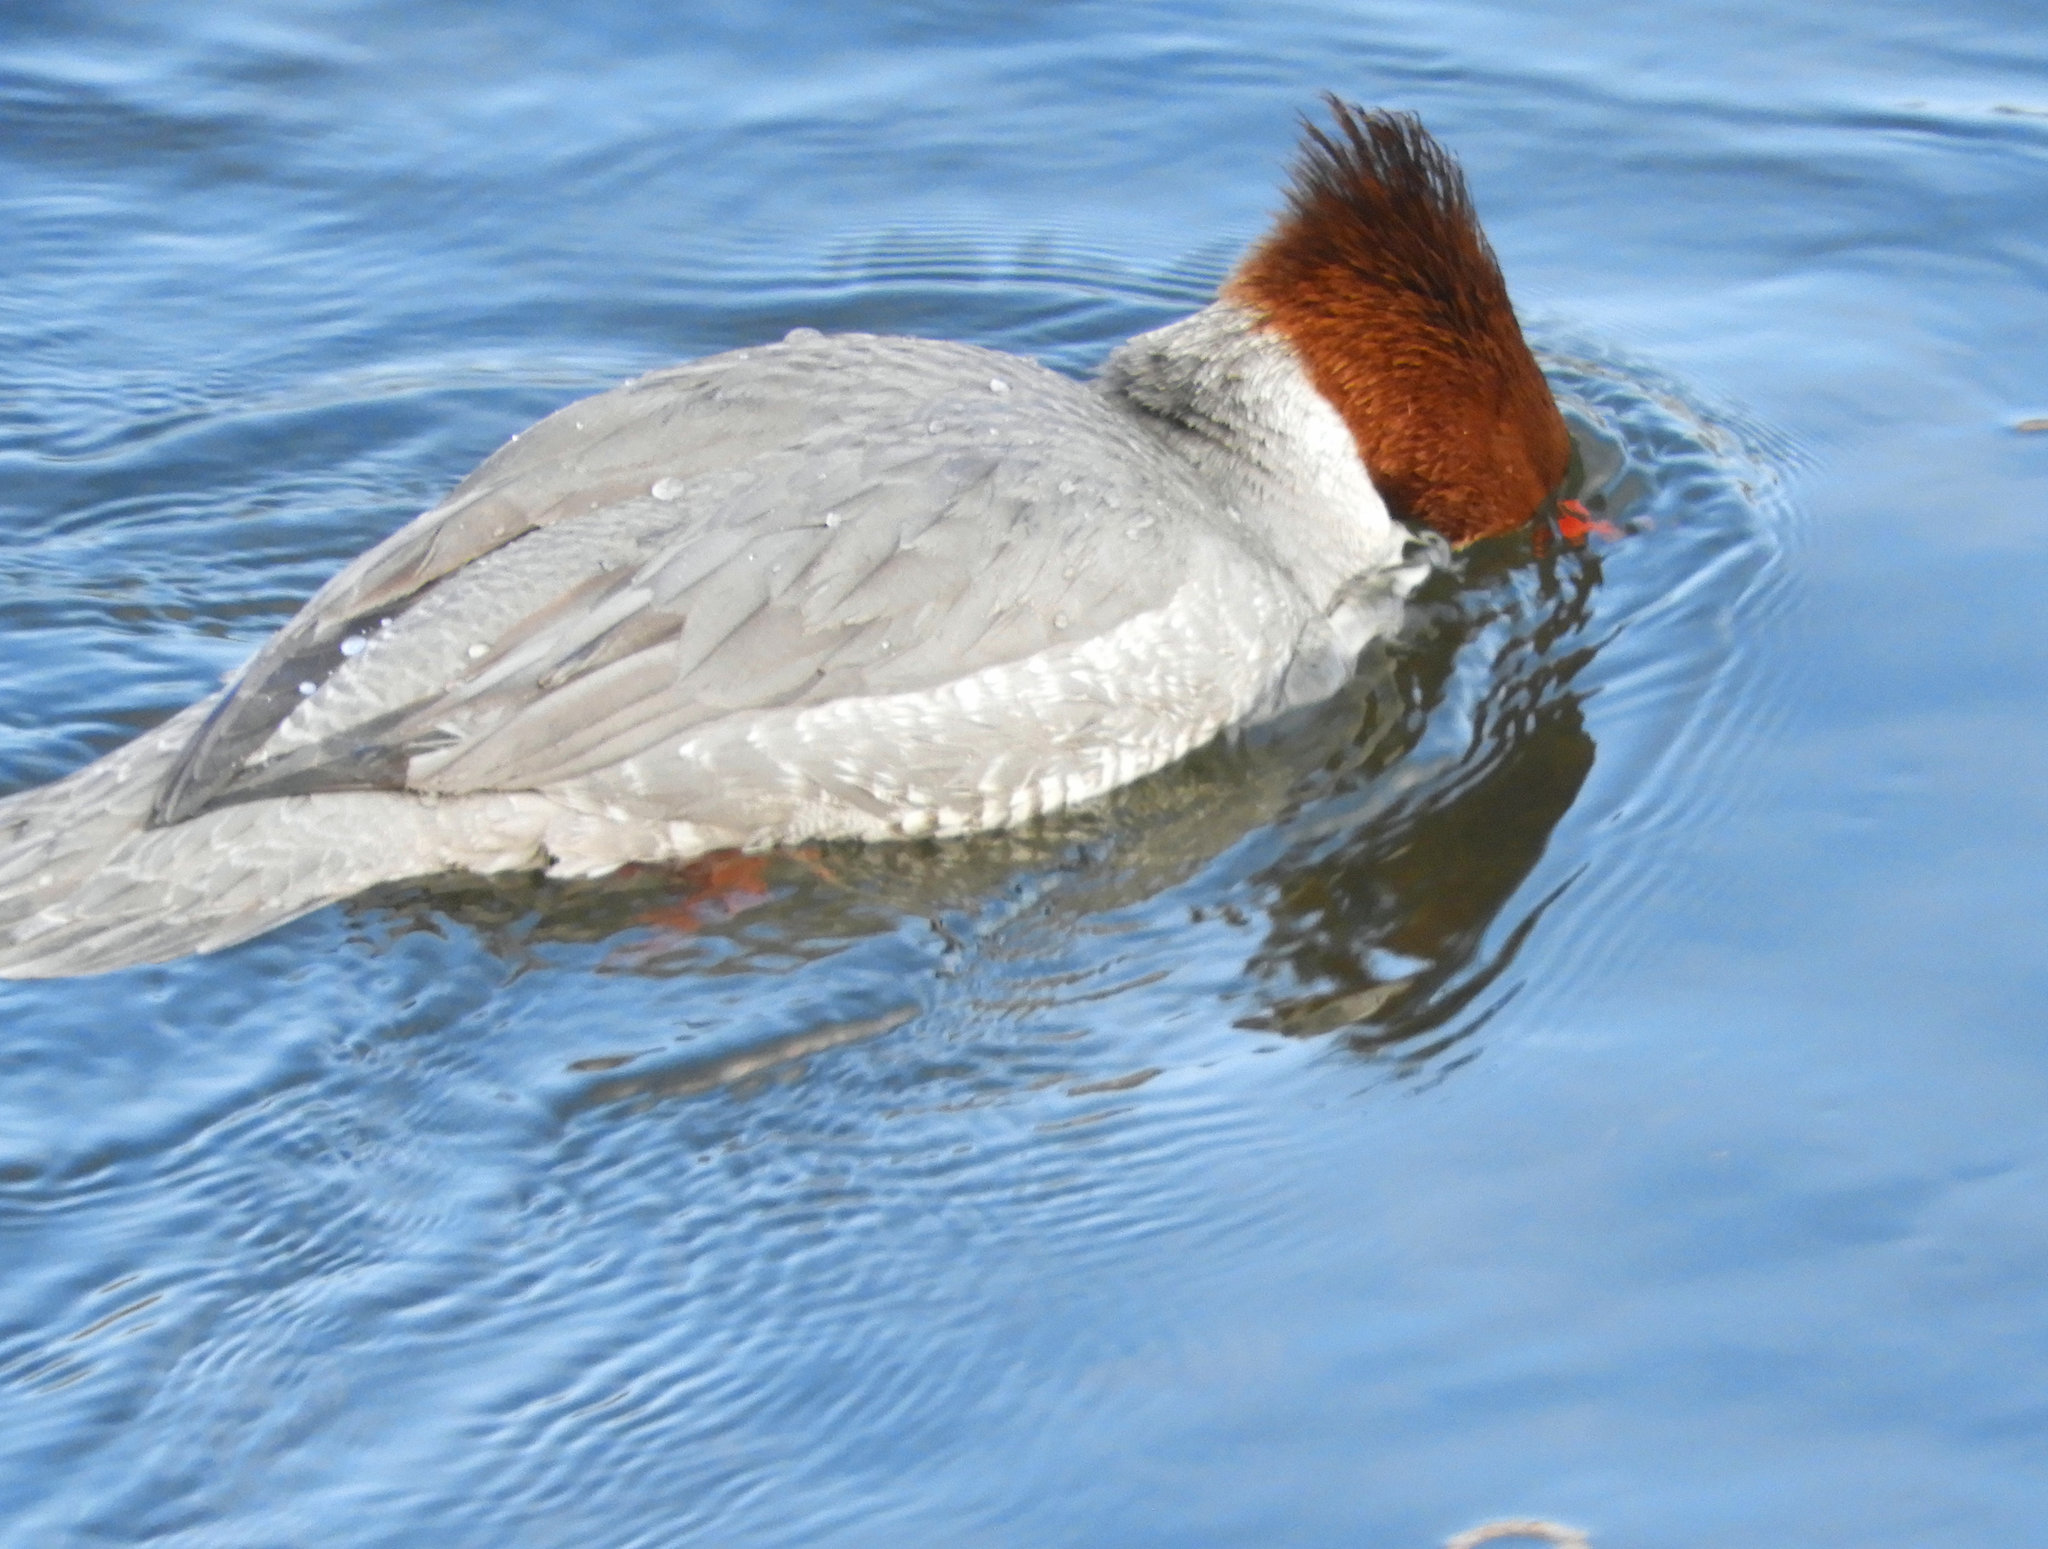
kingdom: Animalia
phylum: Chordata
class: Aves
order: Anseriformes
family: Anatidae
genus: Mergus
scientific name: Mergus merganser
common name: Common merganser
